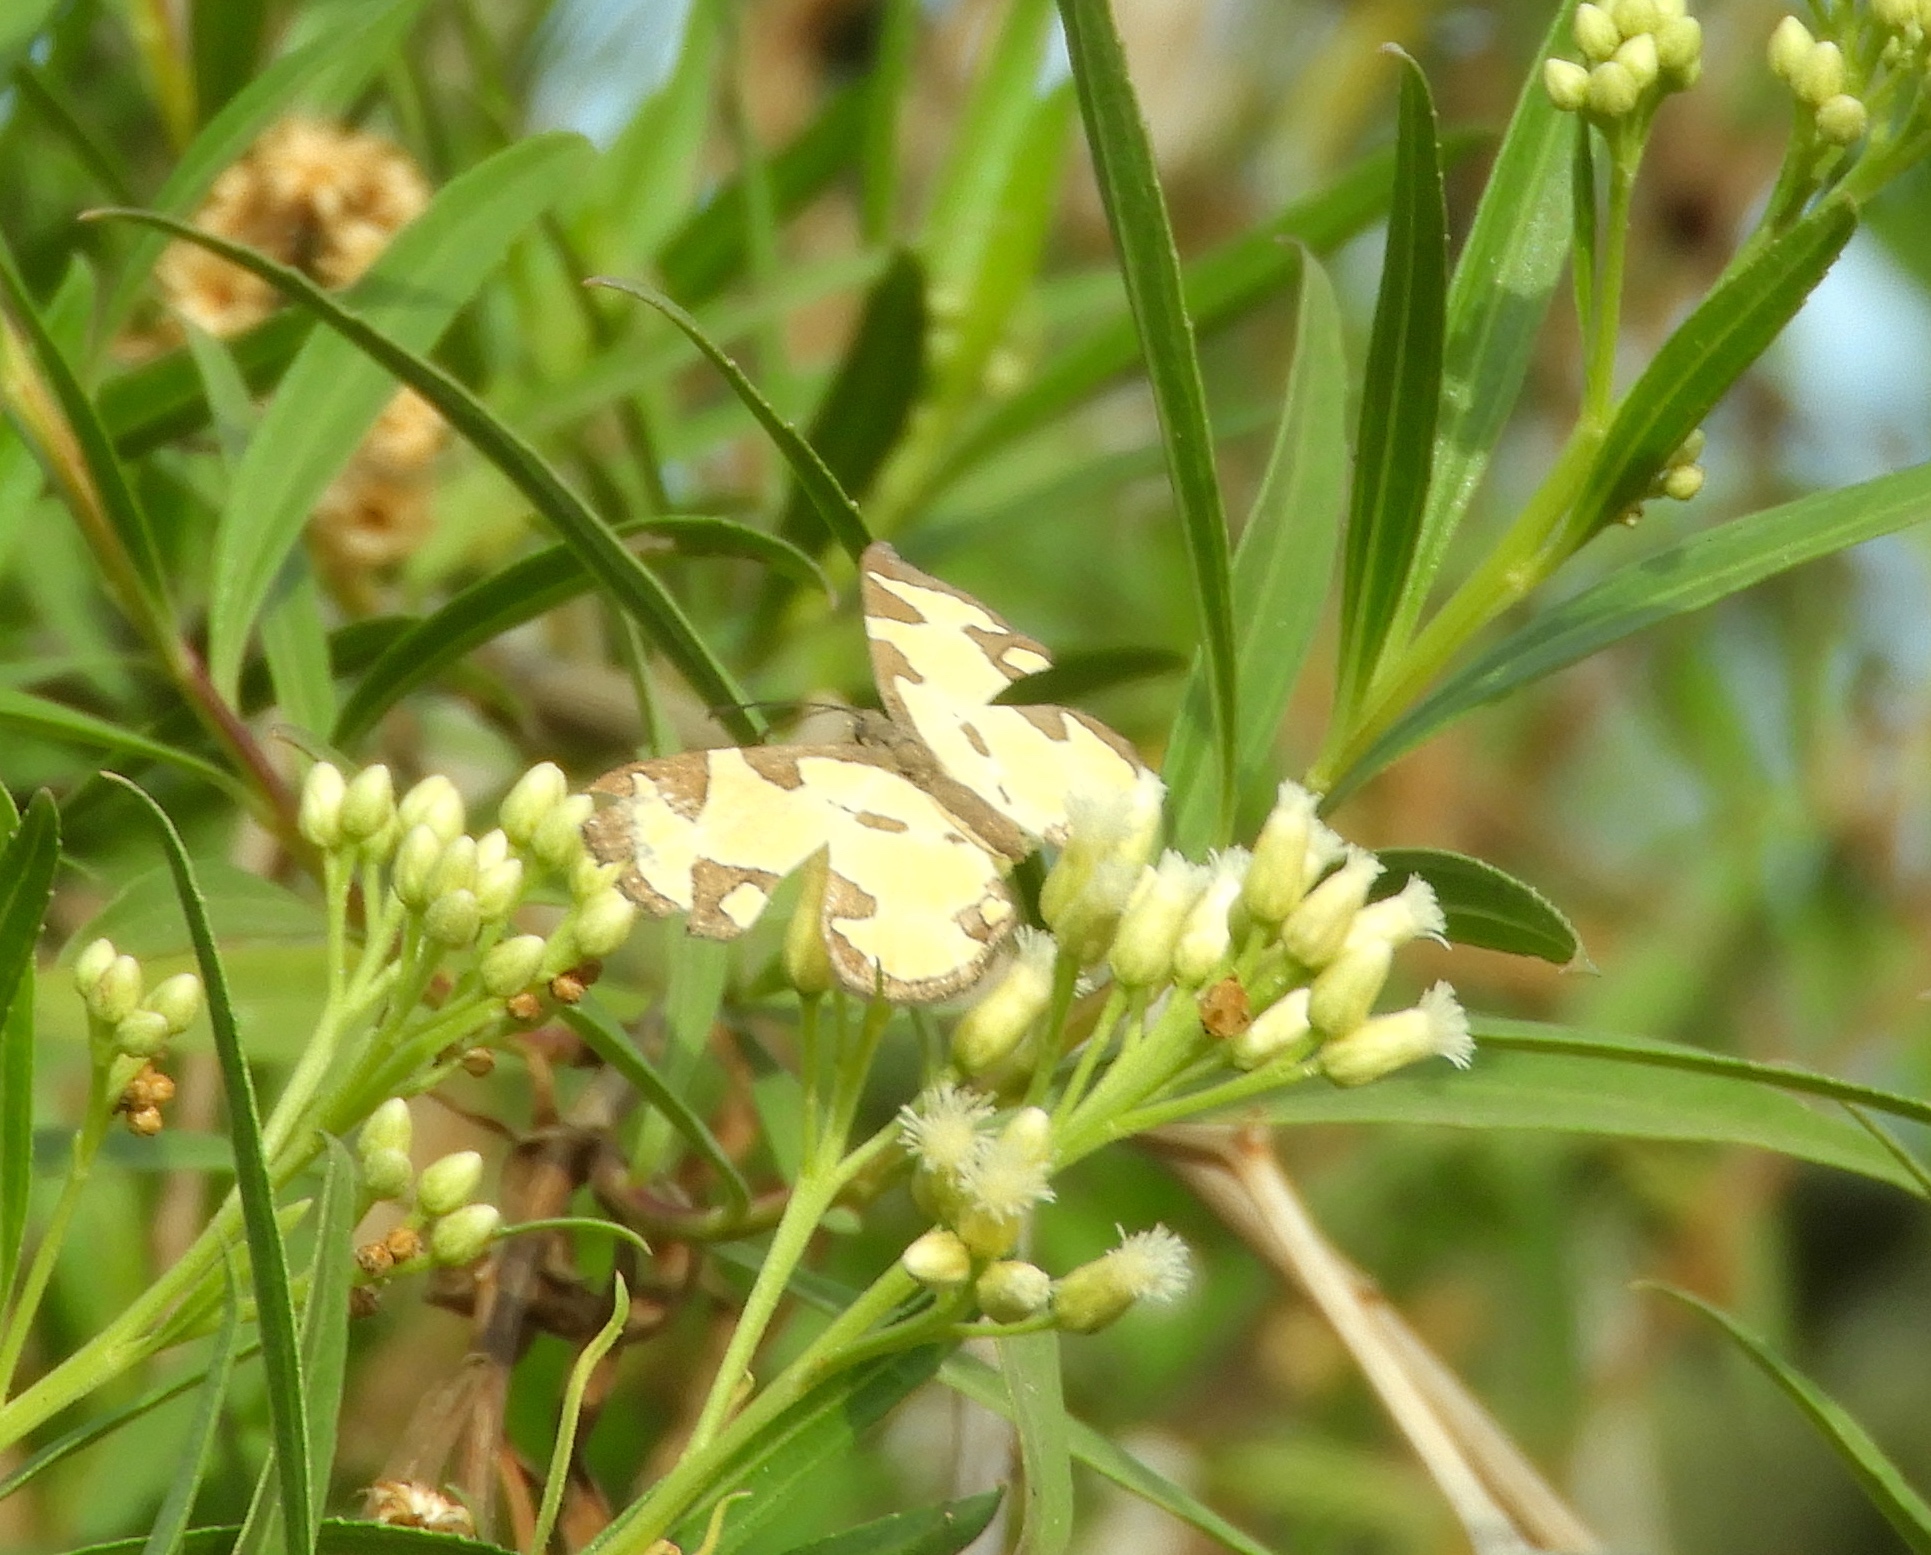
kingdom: Animalia
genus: Baeotis
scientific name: Baeotis zonata
